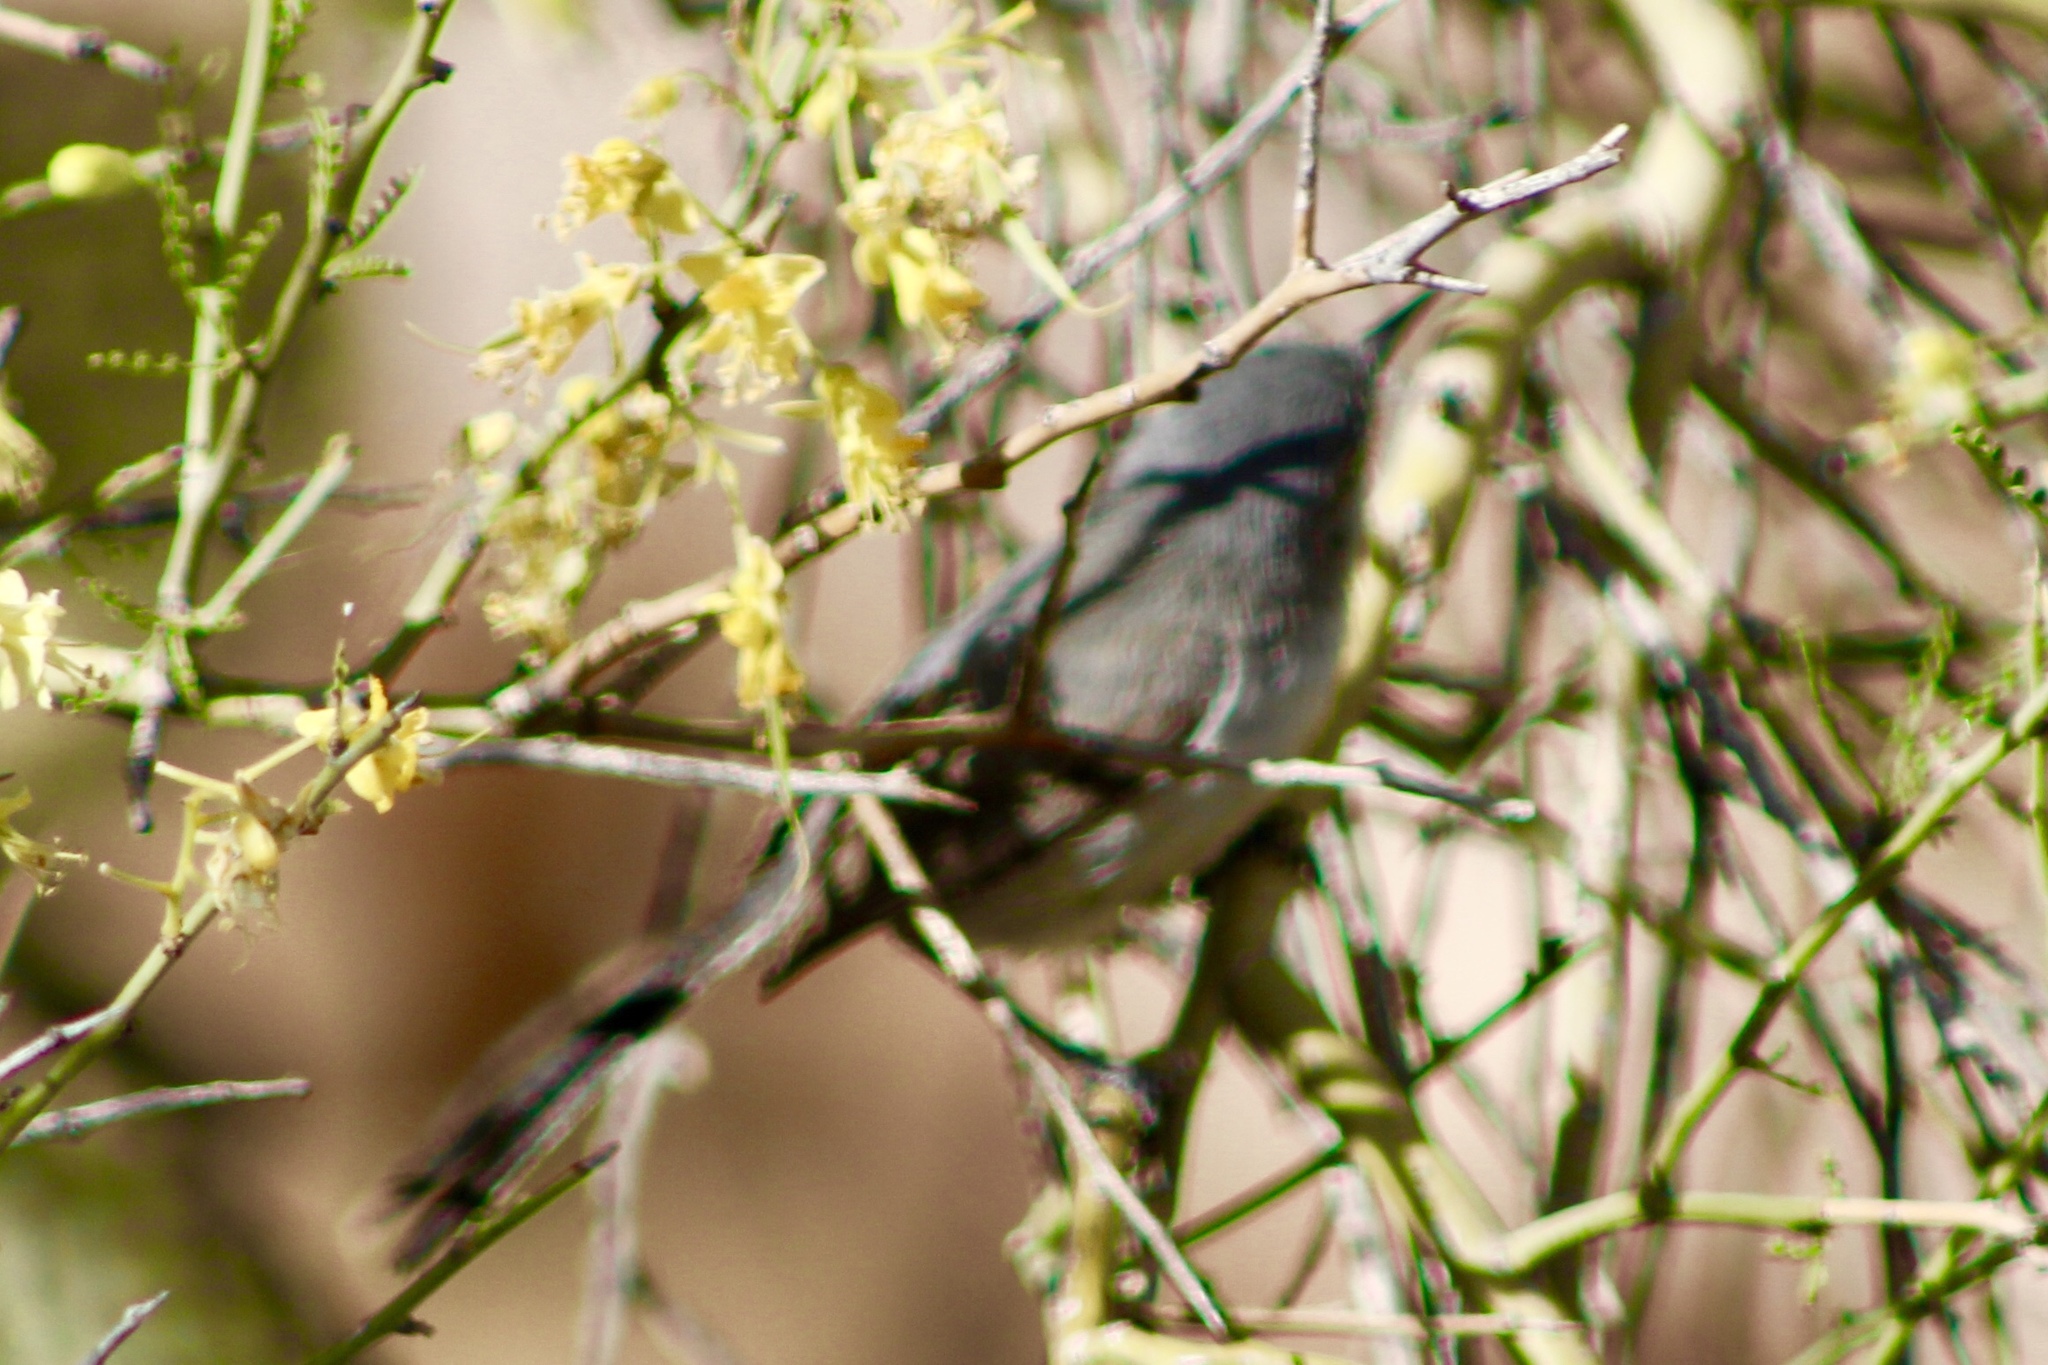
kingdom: Animalia
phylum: Chordata
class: Aves
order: Passeriformes
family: Polioptilidae
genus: Polioptila
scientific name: Polioptila melanura
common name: Black-tailed gnatcatcher
